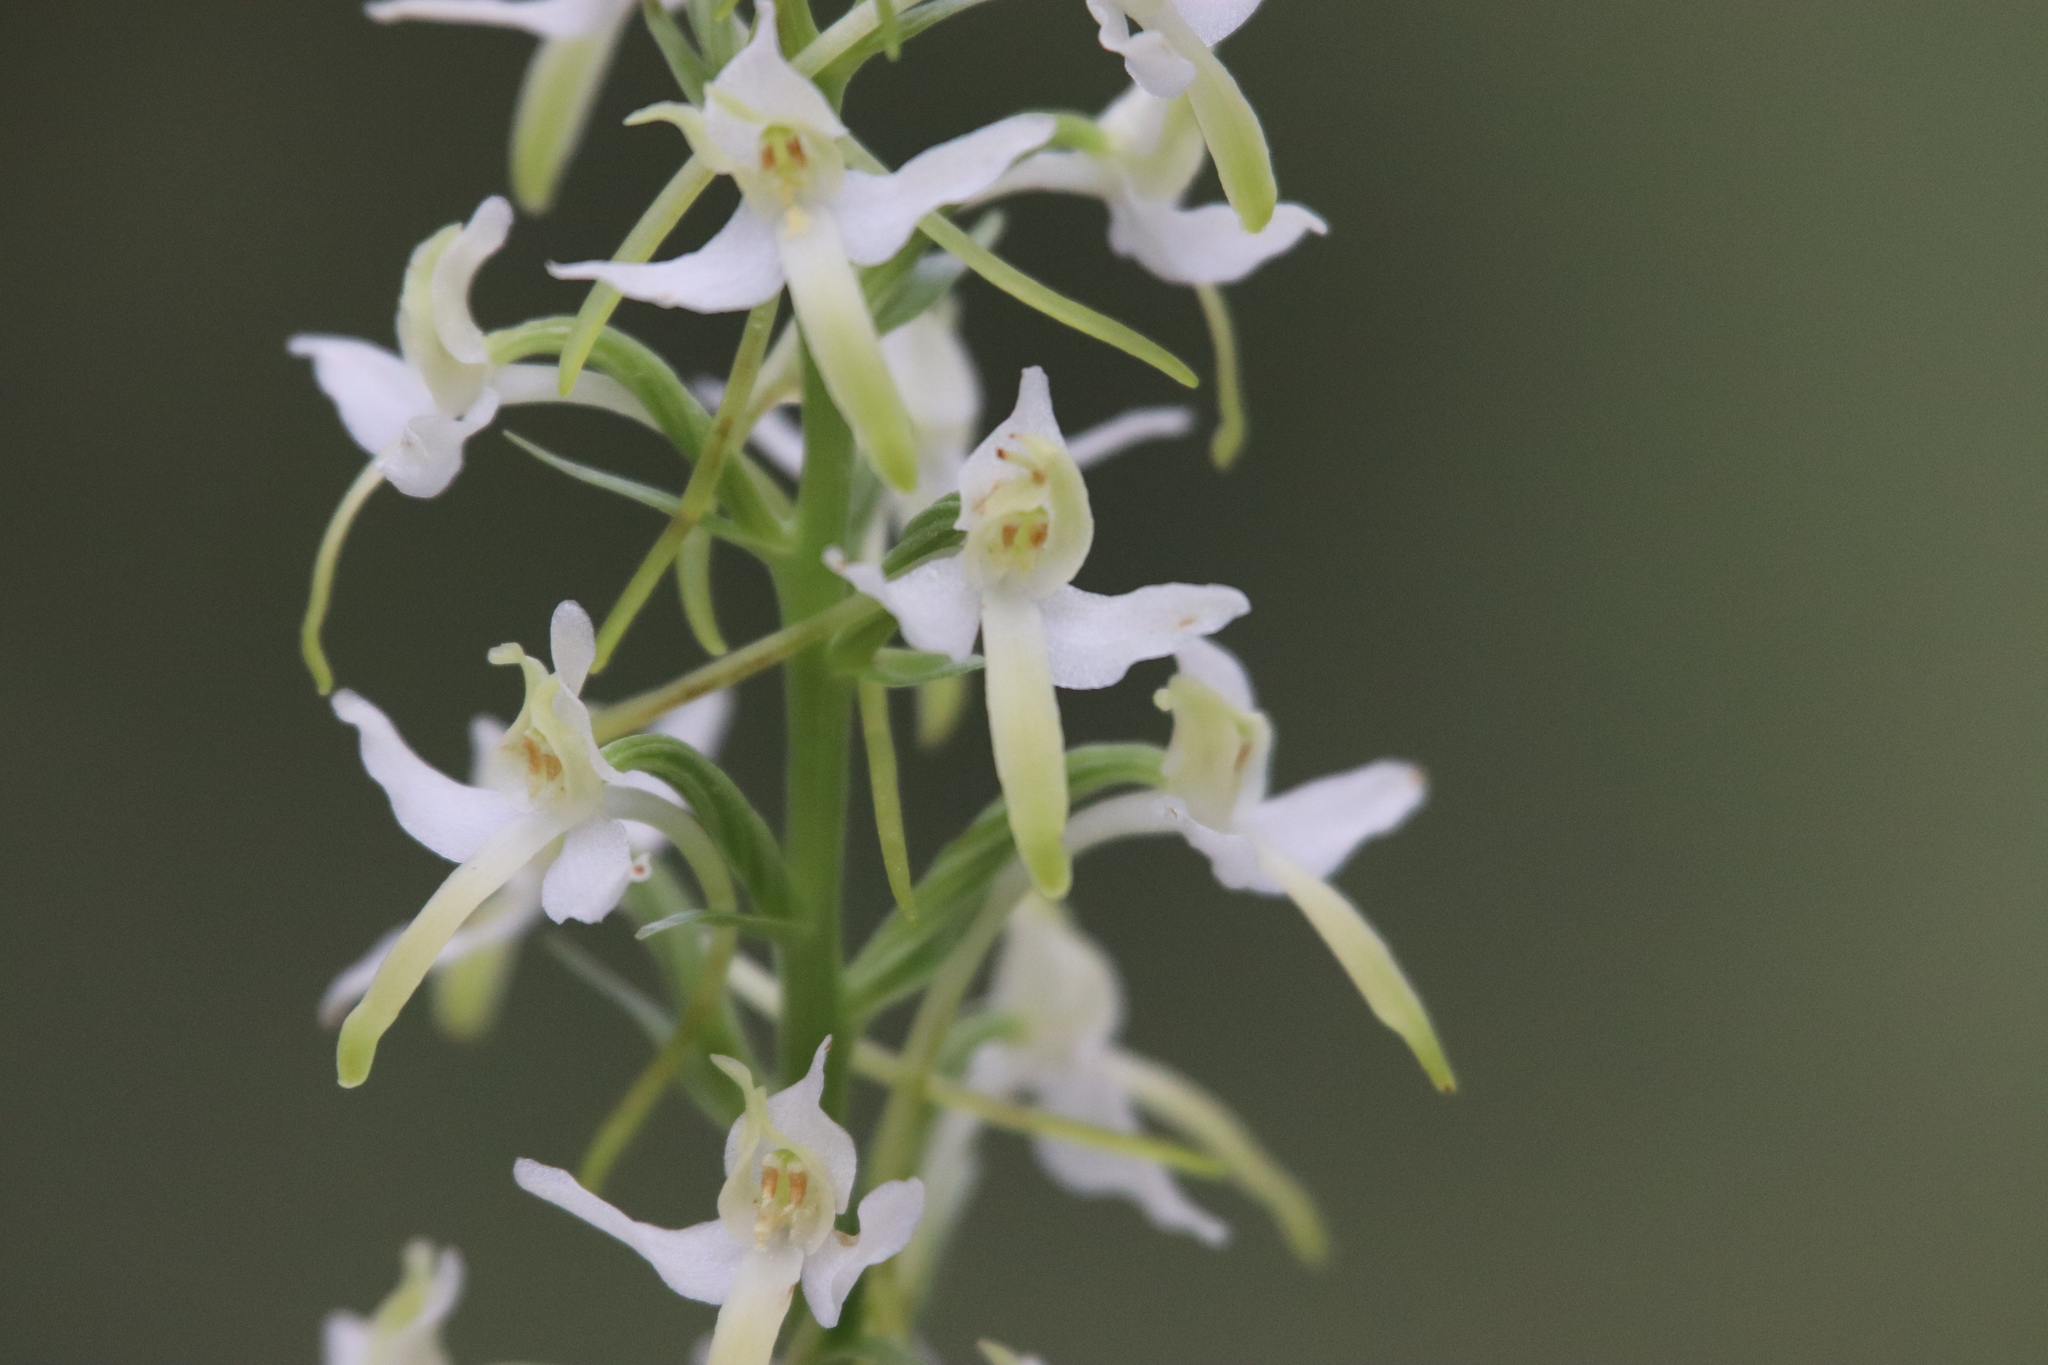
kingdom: Plantae
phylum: Tracheophyta
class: Liliopsida
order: Asparagales
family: Orchidaceae
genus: Platanthera
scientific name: Platanthera bifolia
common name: Lesser butterfly-orchid
